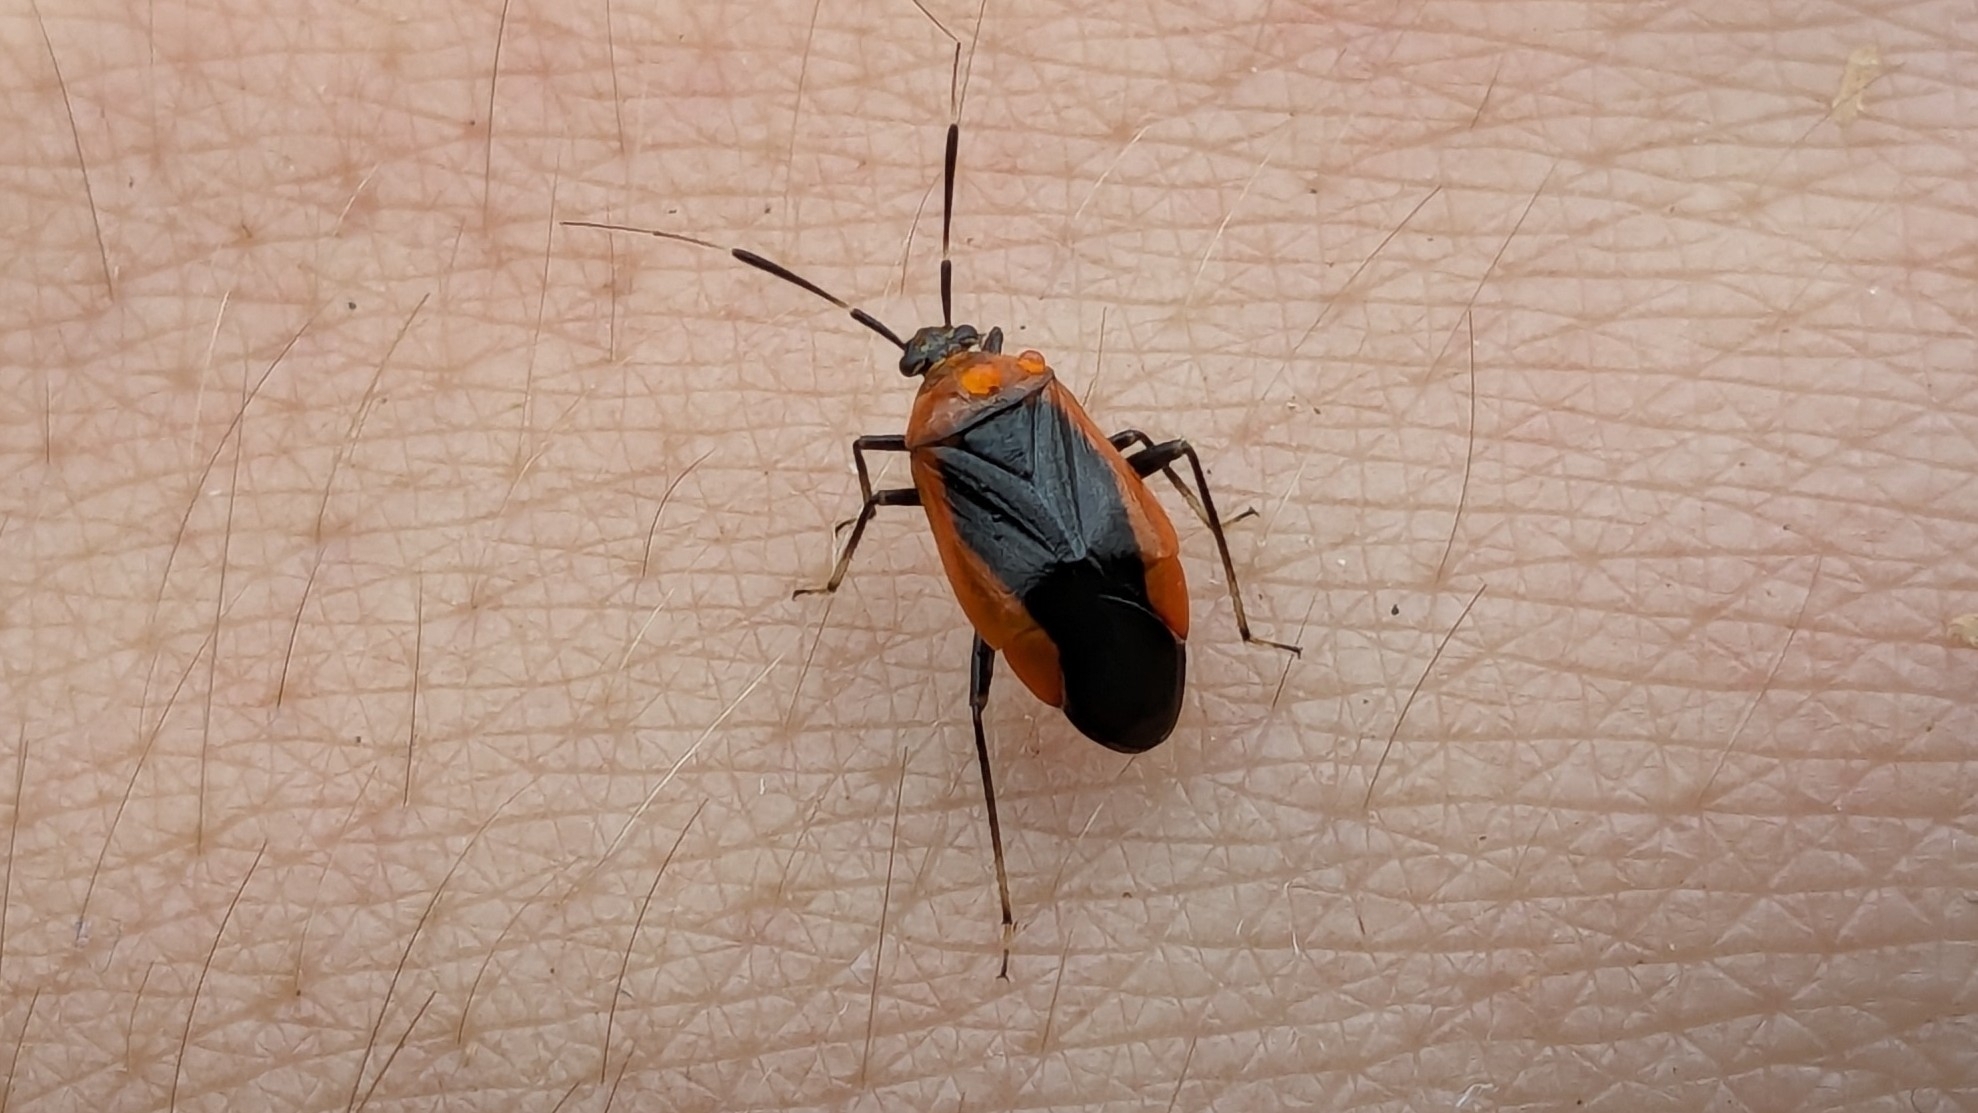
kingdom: Animalia
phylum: Arthropoda
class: Insecta
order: Hemiptera
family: Miridae
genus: Metriorrhynchomiris
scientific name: Metriorrhynchomiris dislocatus
